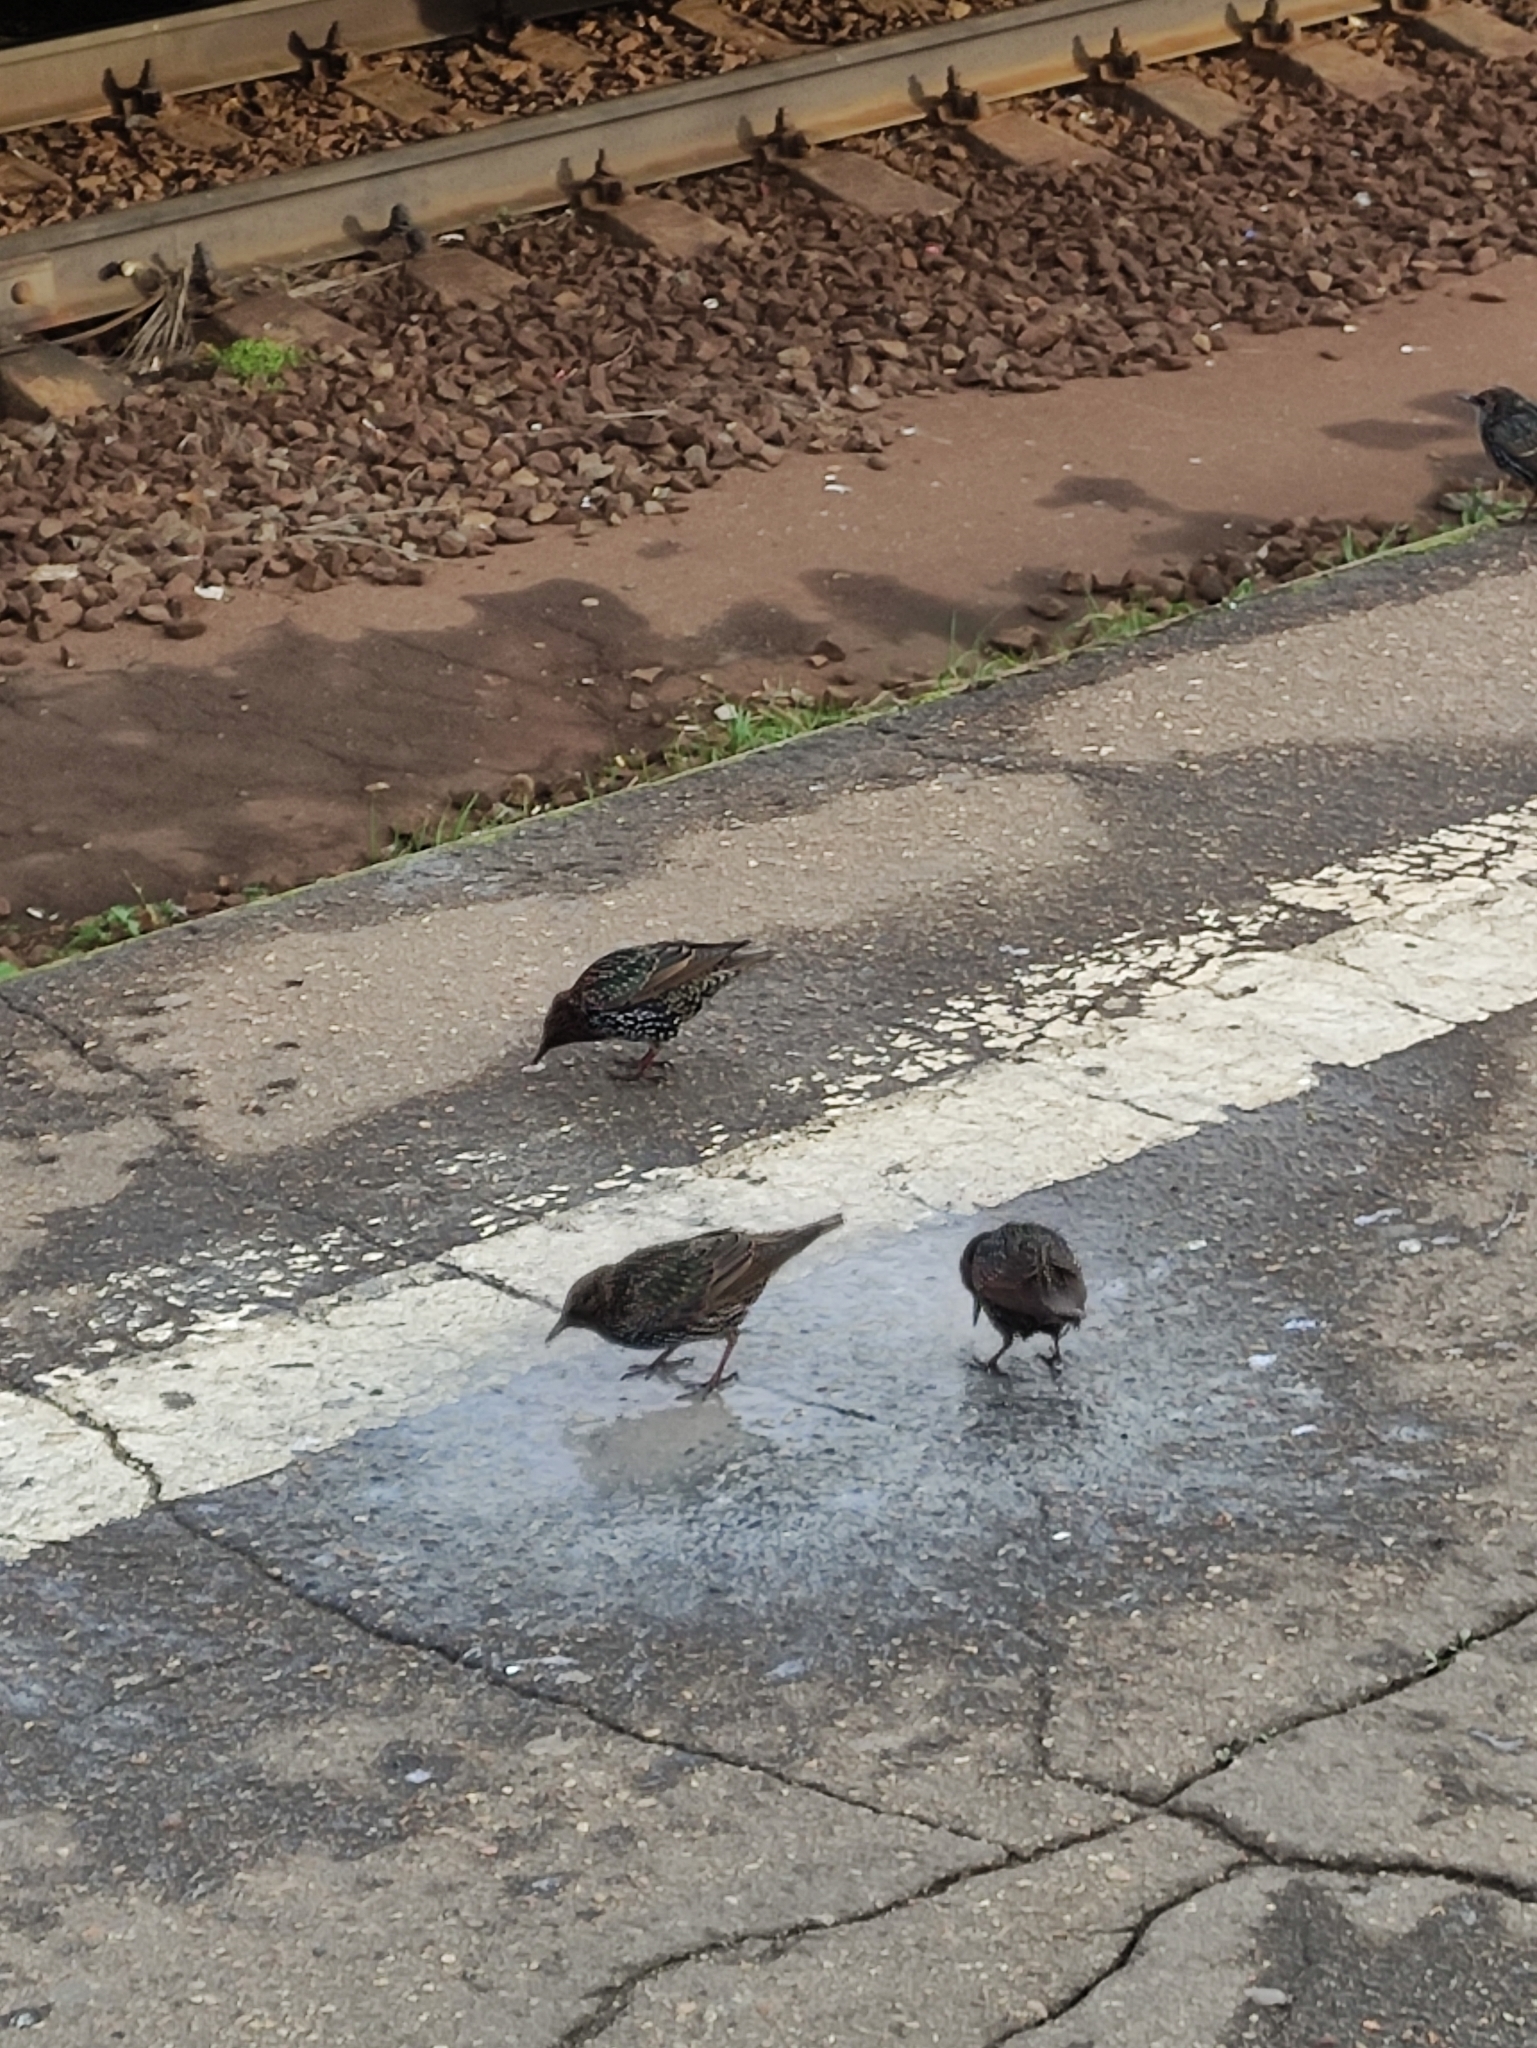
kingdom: Animalia
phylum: Chordata
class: Aves
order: Passeriformes
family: Sturnidae
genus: Sturnus
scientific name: Sturnus vulgaris
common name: Common starling
